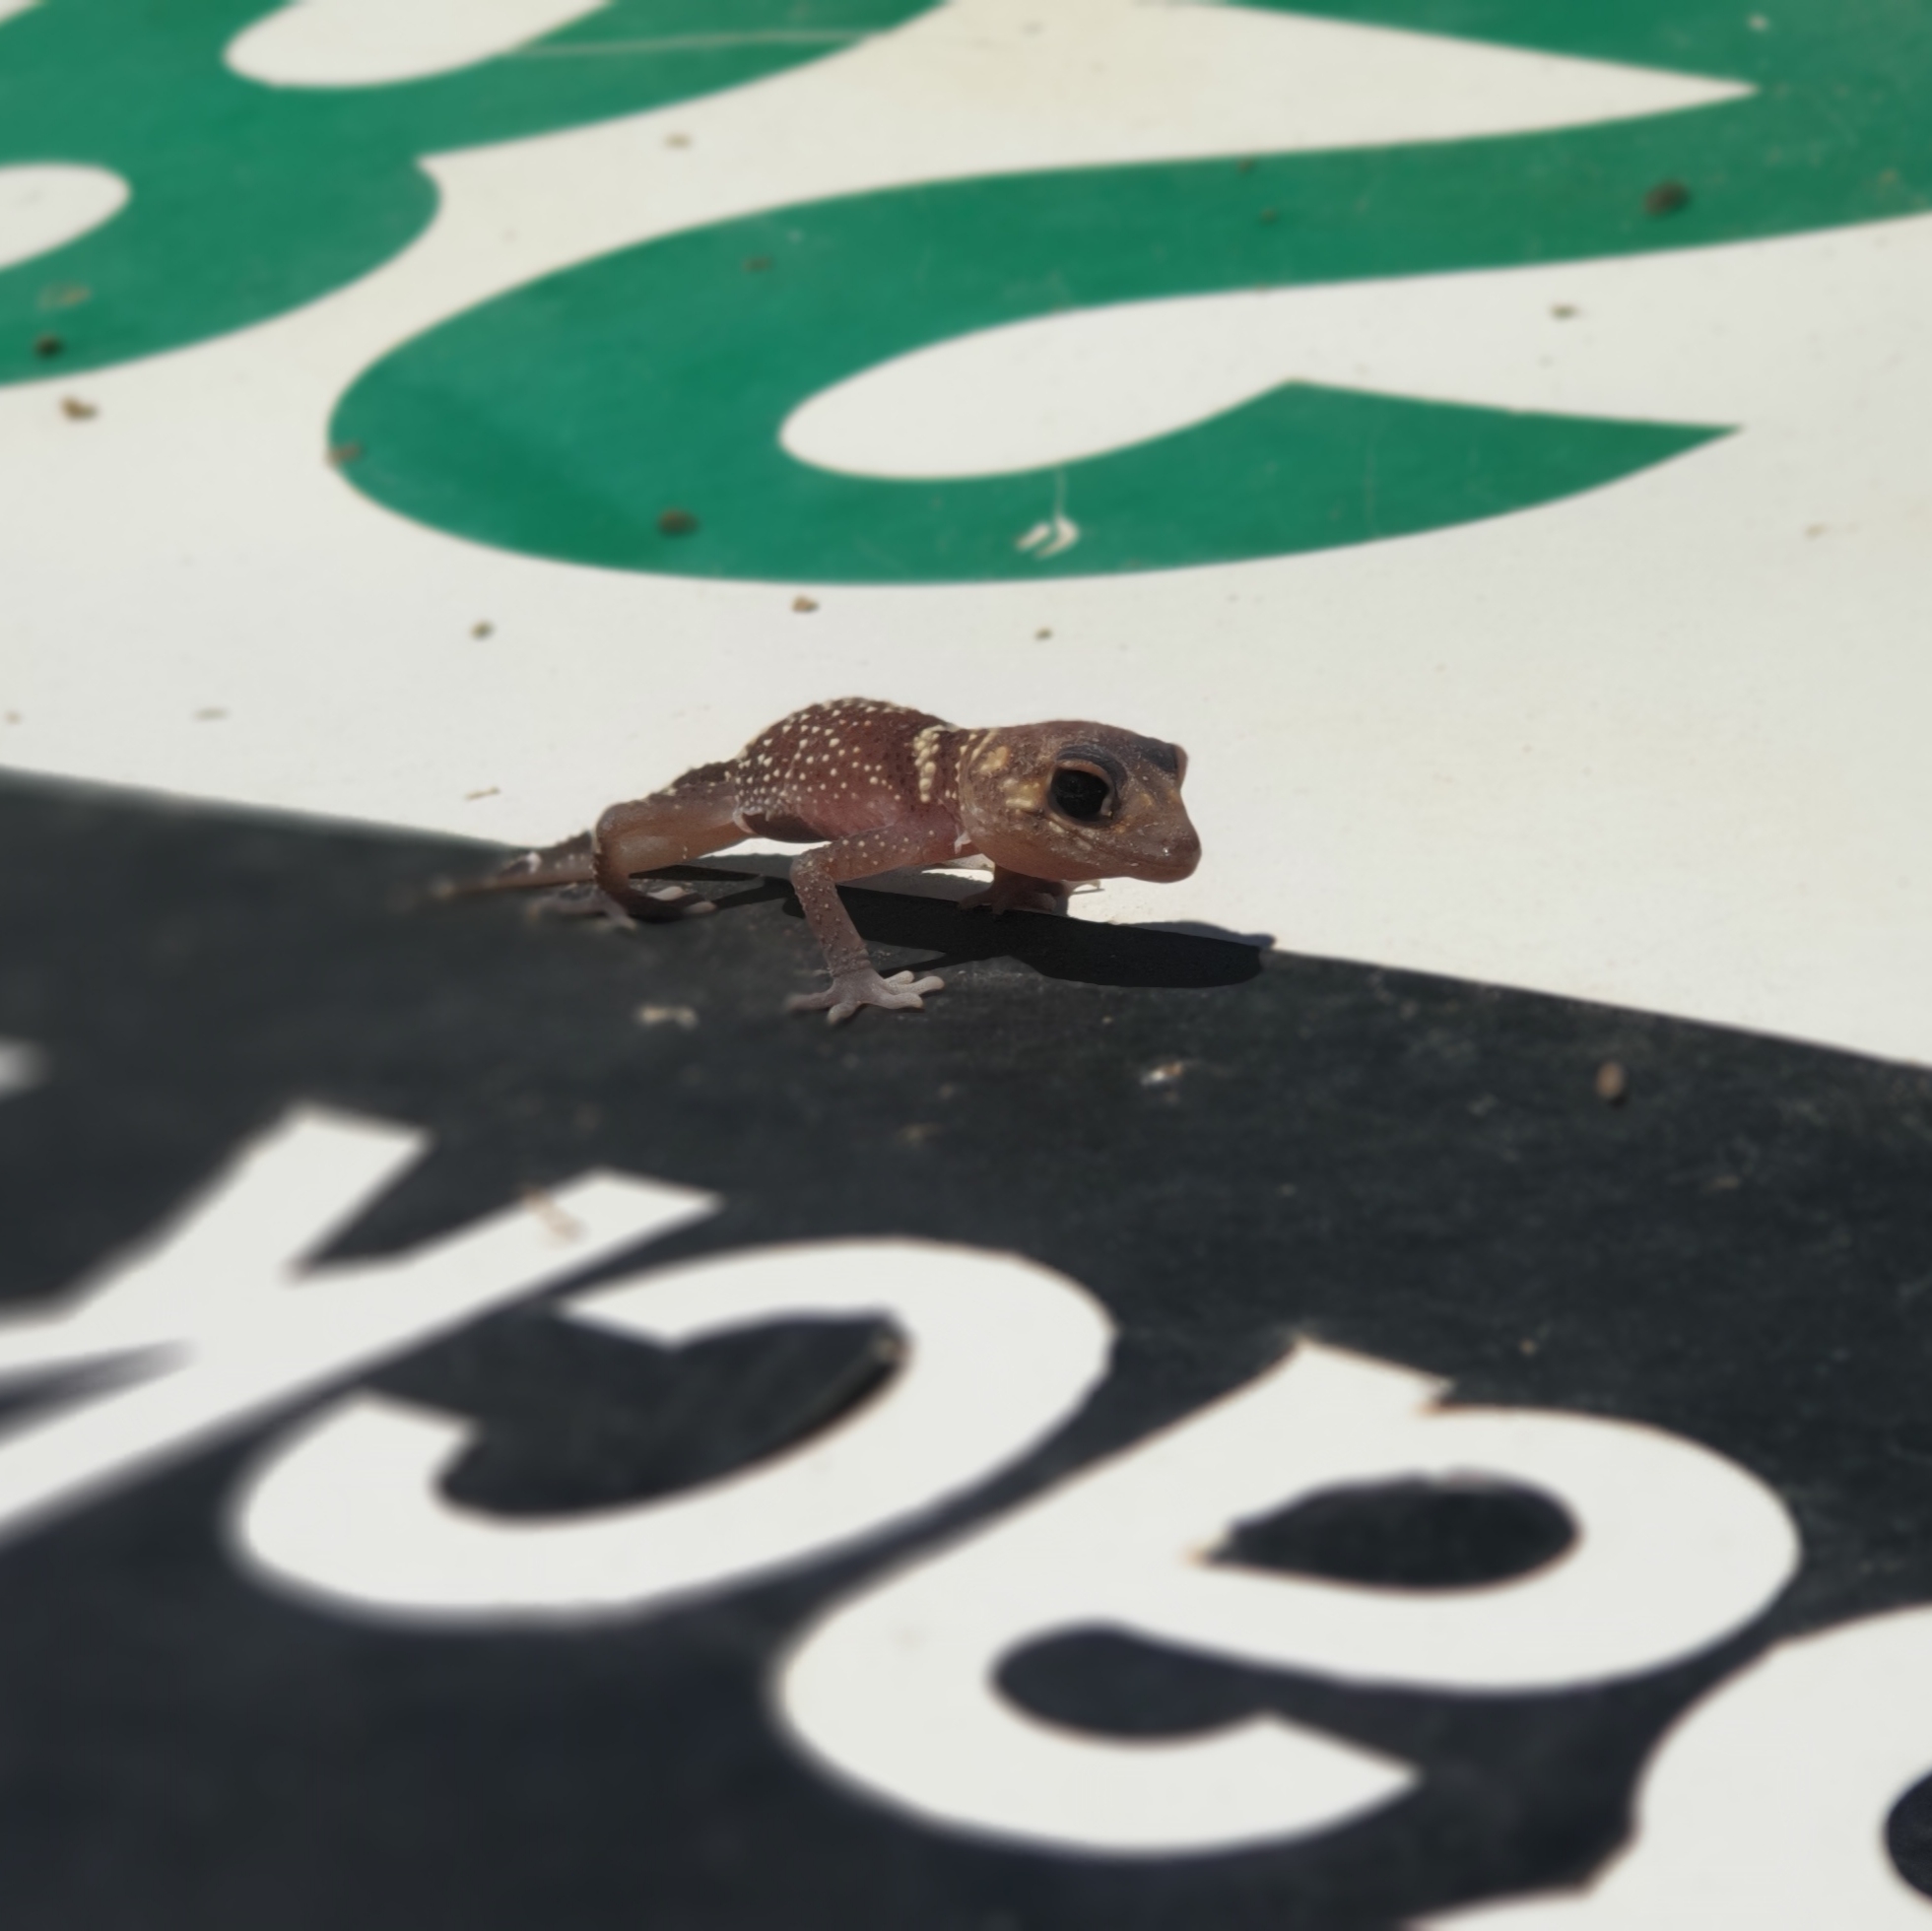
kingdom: Animalia
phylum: Chordata
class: Squamata
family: Carphodactylidae
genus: Underwoodisaurus
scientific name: Underwoodisaurus milii
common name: Barking gecko
